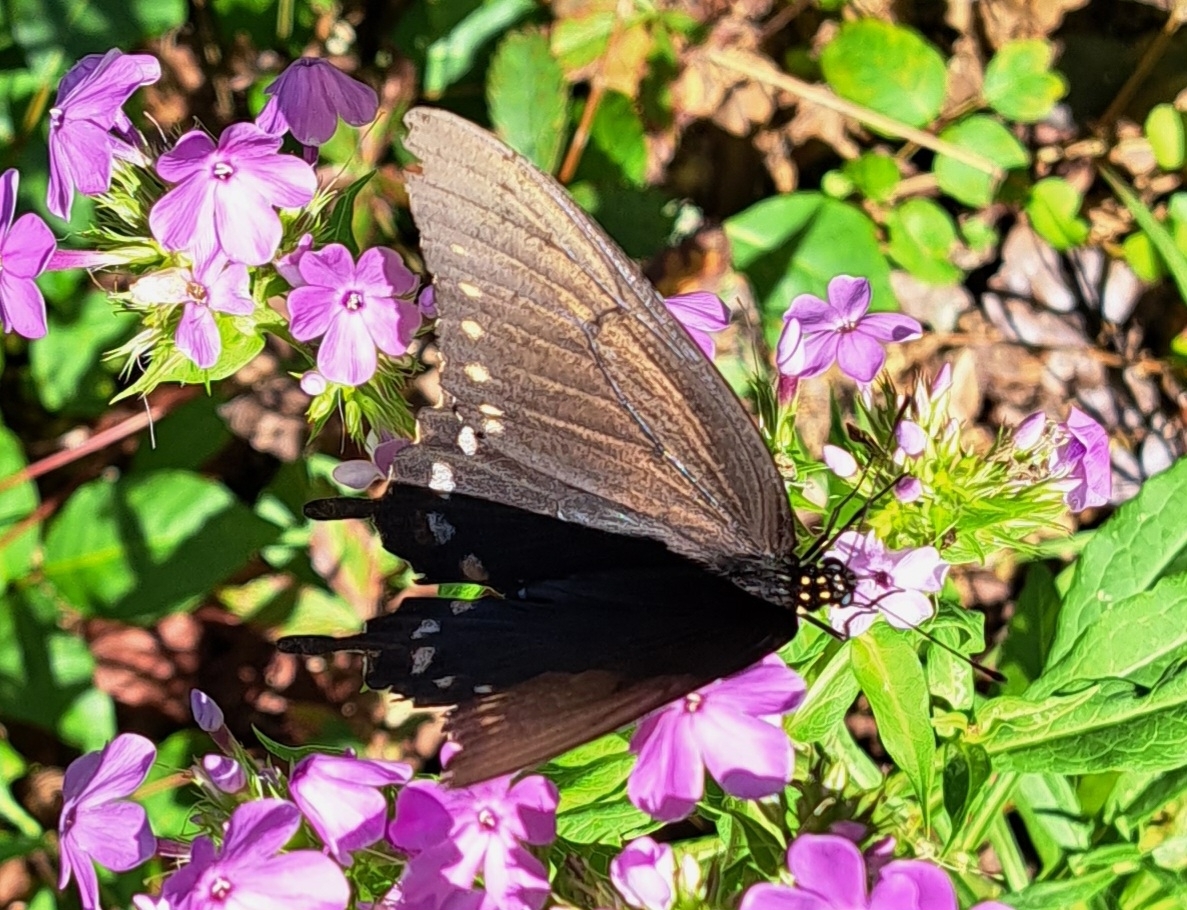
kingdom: Animalia
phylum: Arthropoda
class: Insecta
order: Lepidoptera
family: Papilionidae
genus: Battus
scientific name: Battus philenor
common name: Pipevine swallowtail
